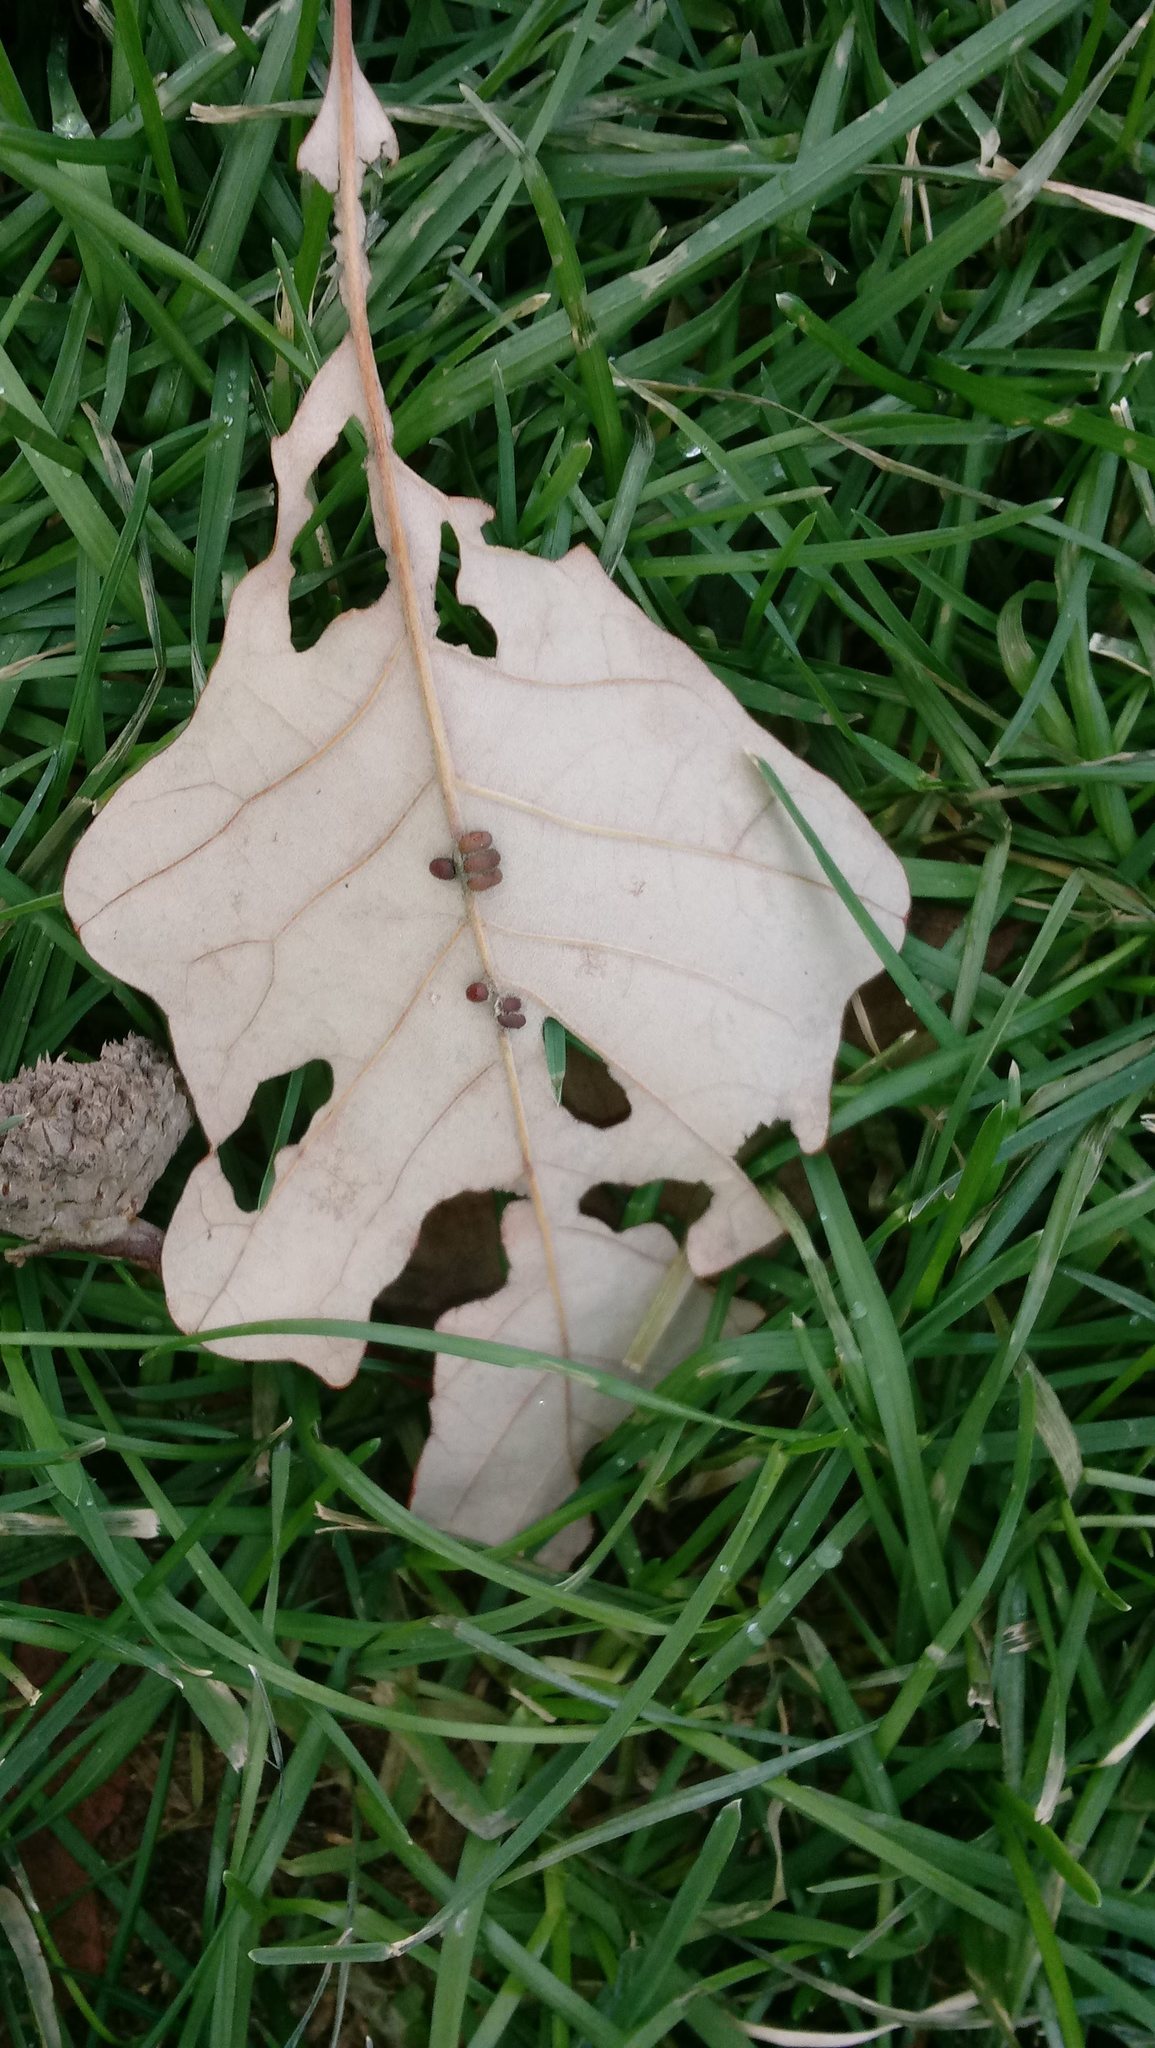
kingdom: Animalia
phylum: Arthropoda
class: Insecta
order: Hymenoptera
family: Cynipidae
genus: Andricus
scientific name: Andricus Druon ignotum
